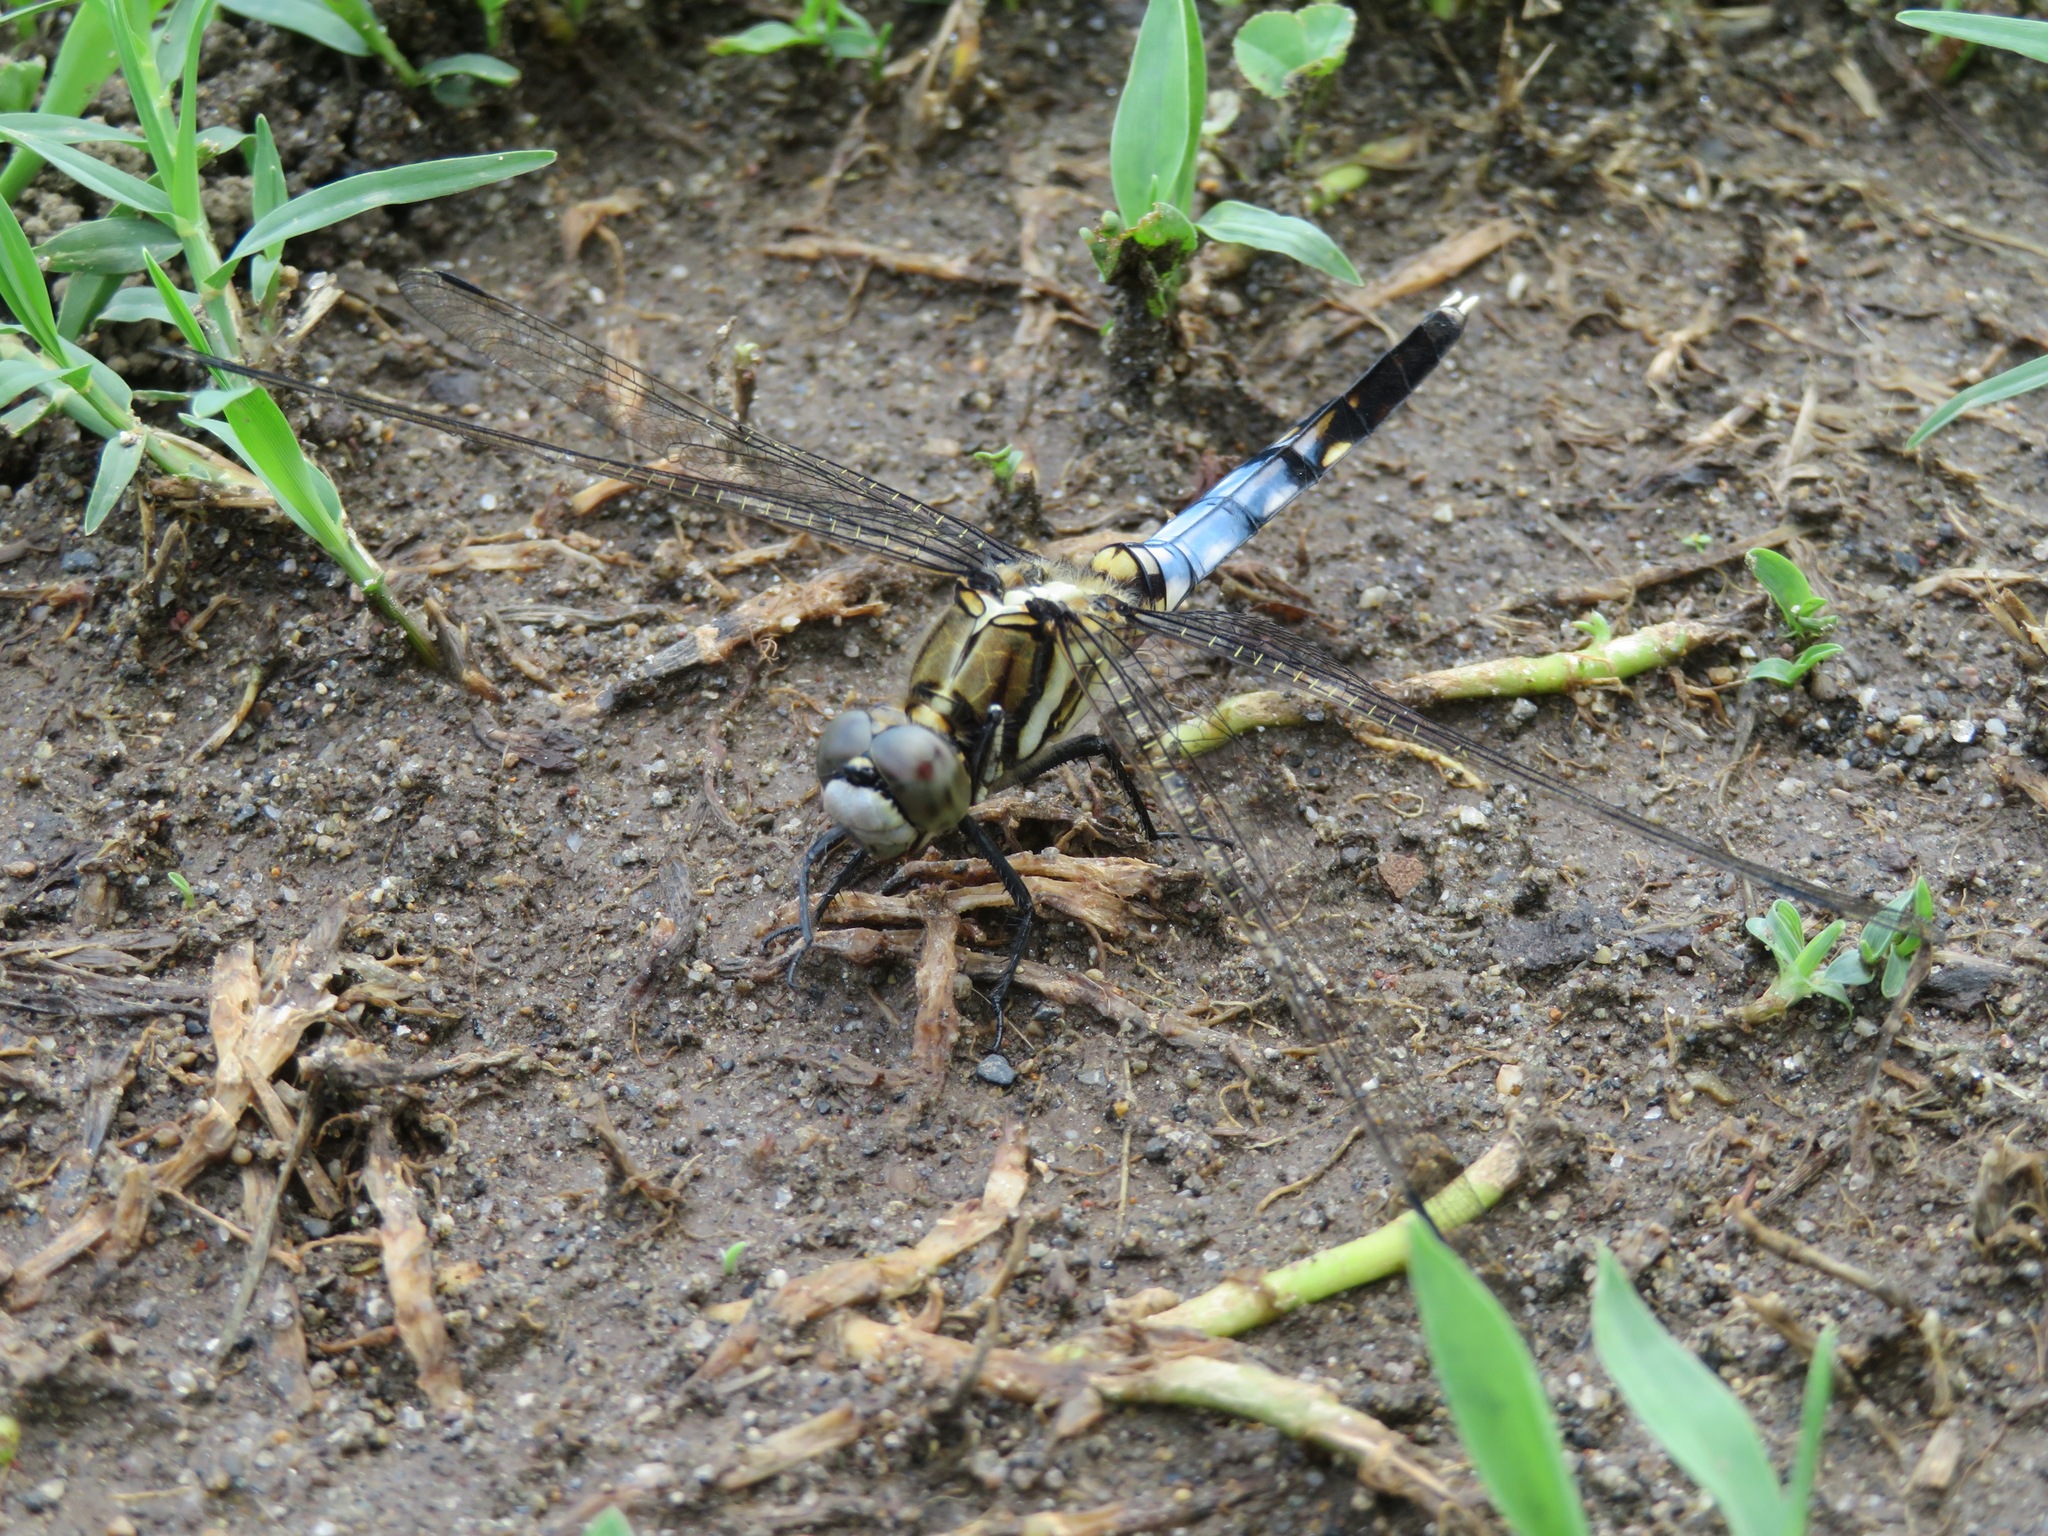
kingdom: Animalia
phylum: Arthropoda
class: Insecta
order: Odonata
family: Libellulidae
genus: Orthetrum
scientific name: Orthetrum albistylum
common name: White-tailed skimmer
